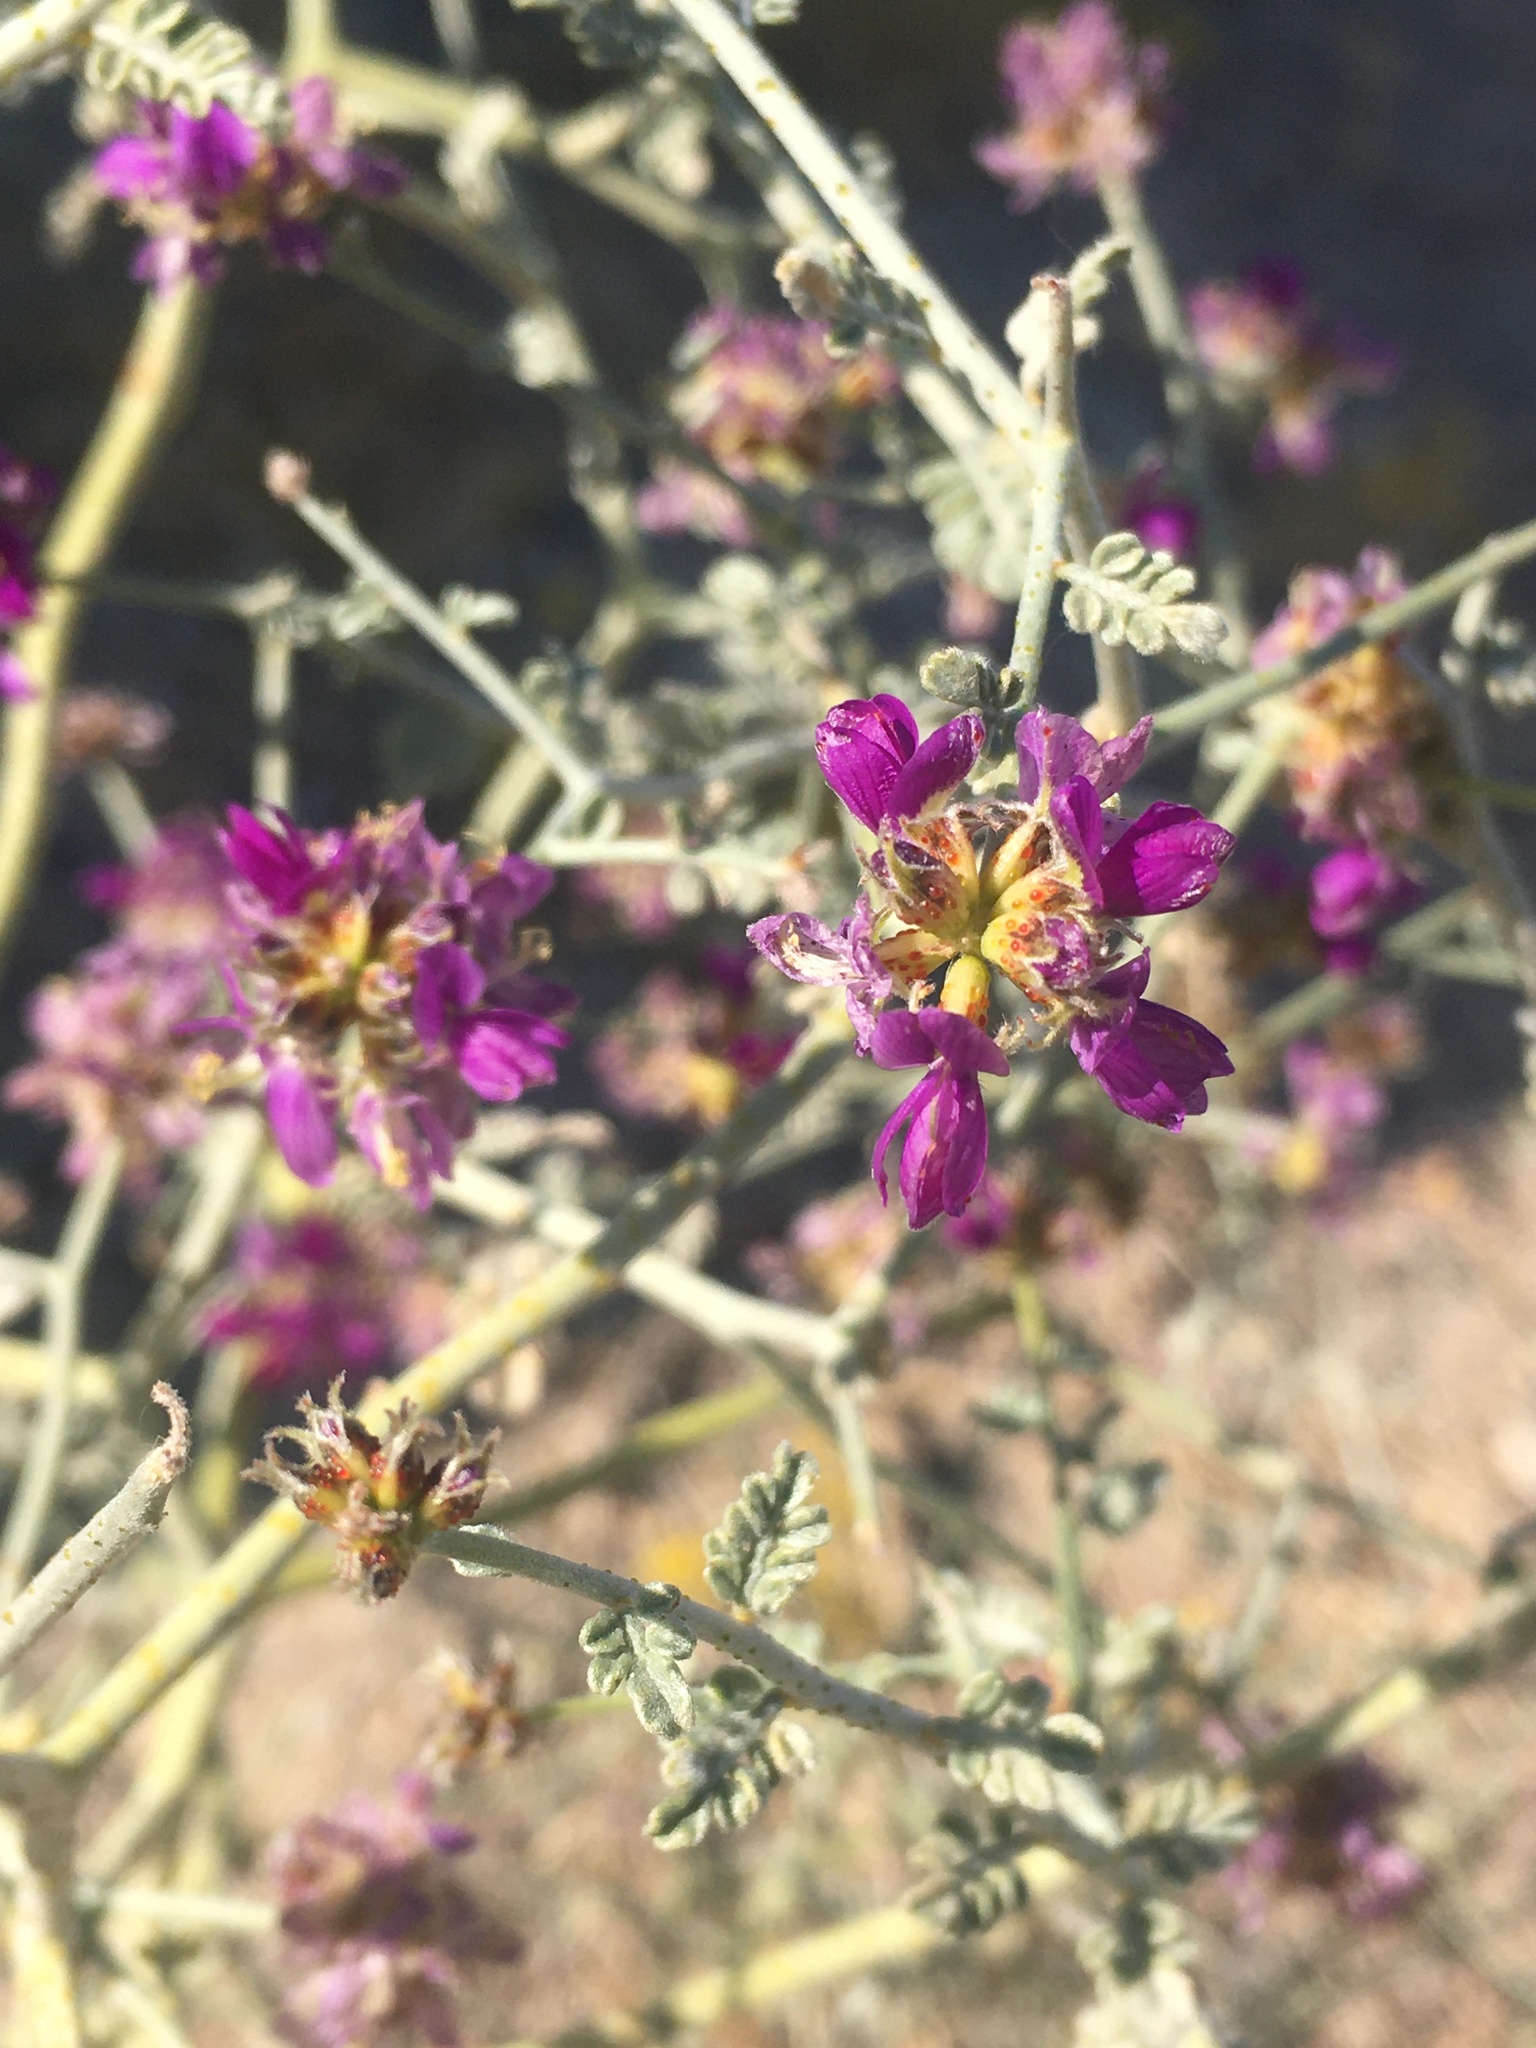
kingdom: Plantae
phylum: Tracheophyta
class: Magnoliopsida
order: Fabales
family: Fabaceae
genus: Psorothamnus
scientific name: Psorothamnus polydenius
